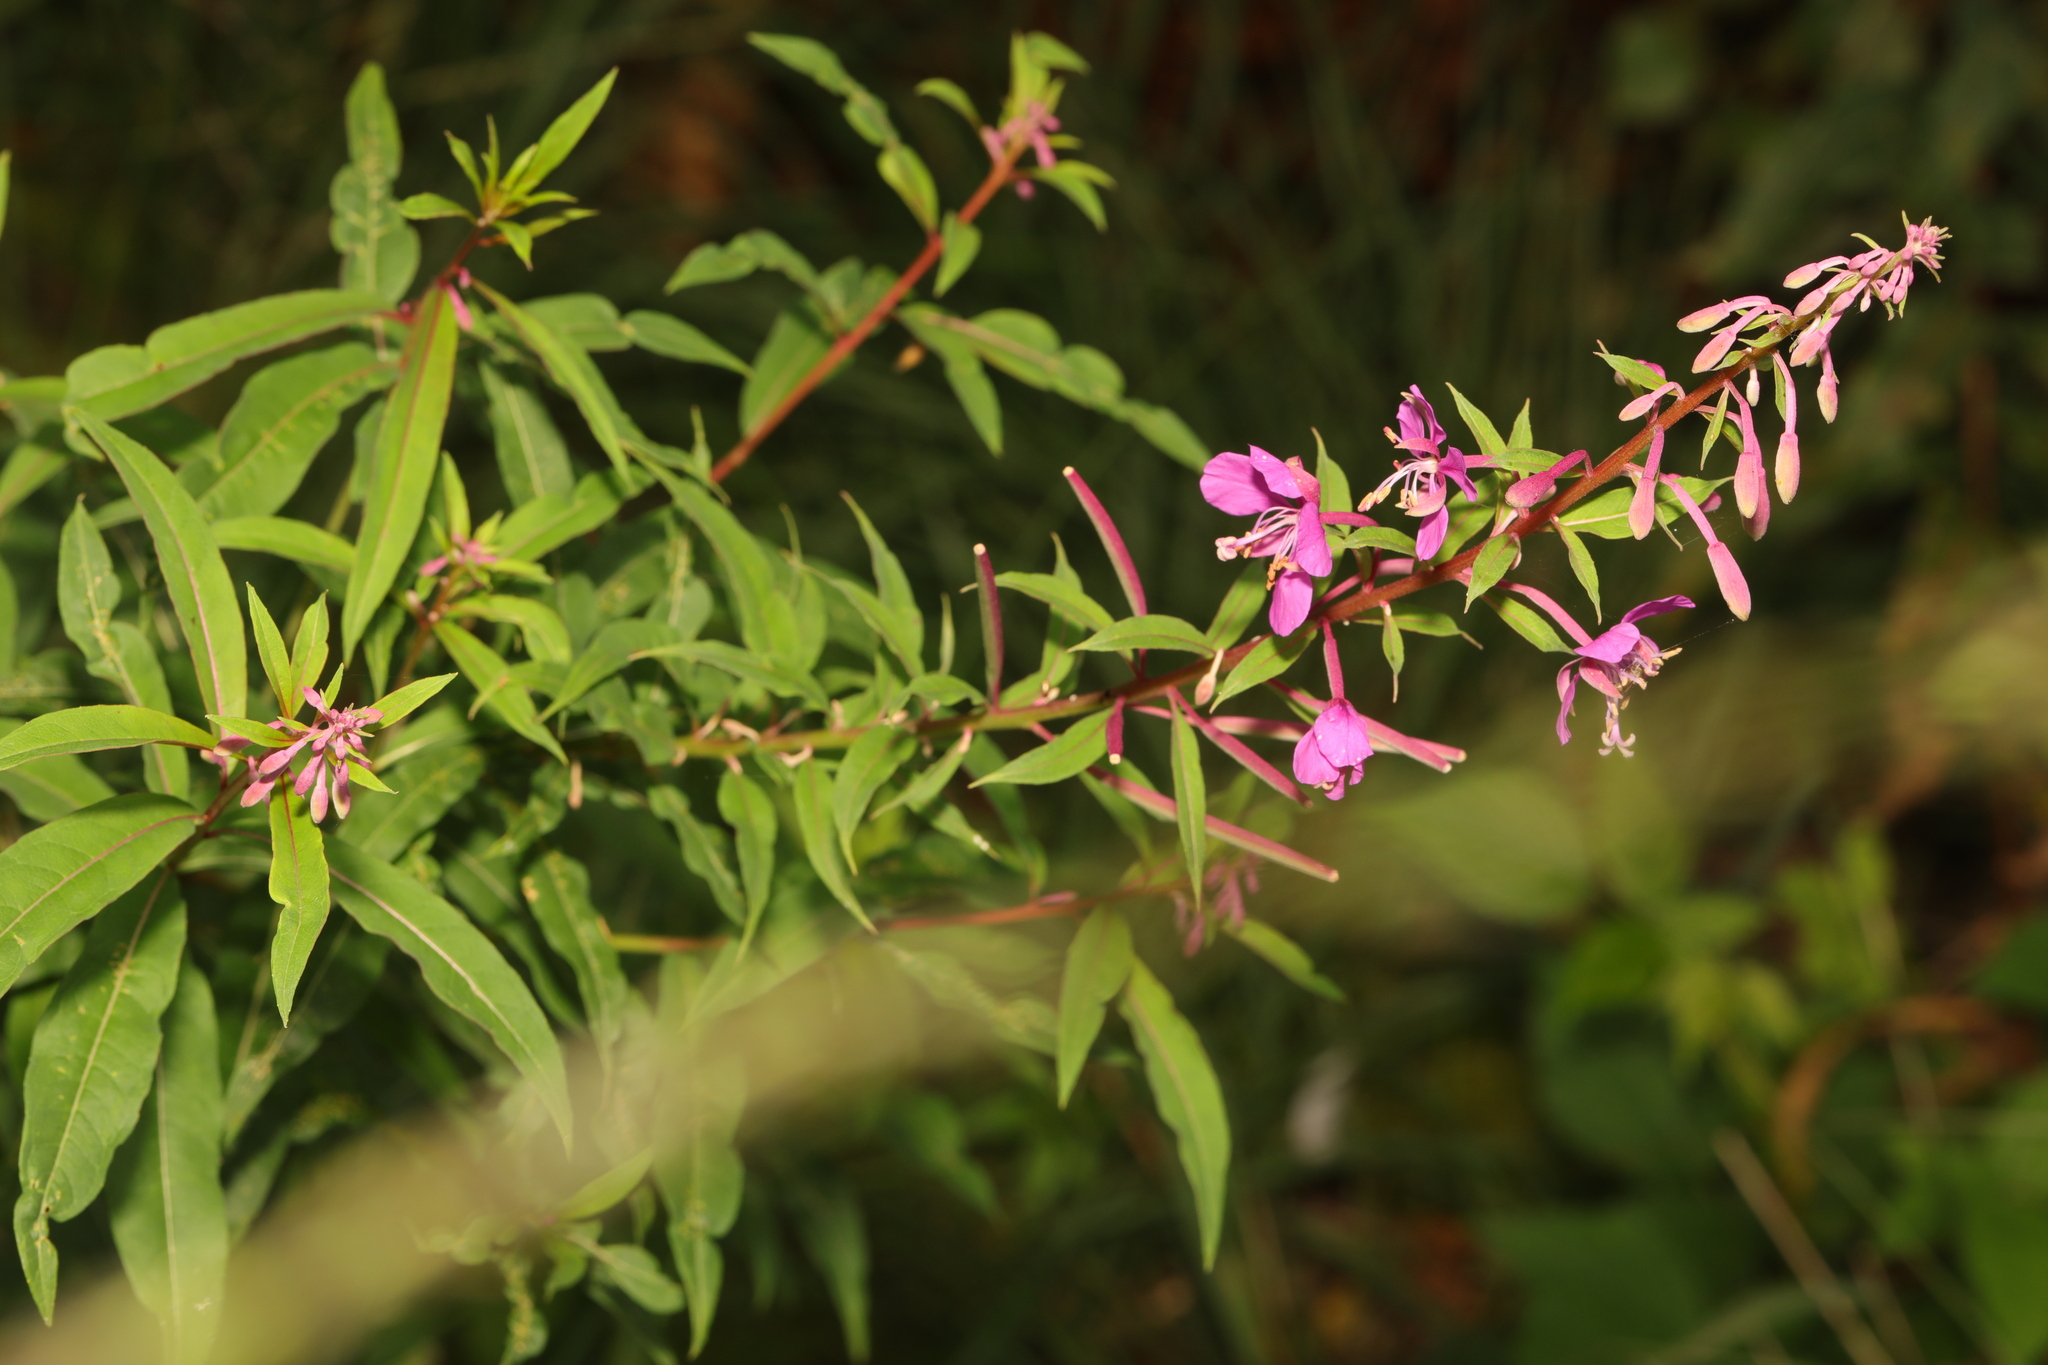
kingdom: Plantae
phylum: Tracheophyta
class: Magnoliopsida
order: Myrtales
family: Onagraceae
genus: Chamaenerion
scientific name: Chamaenerion angustifolium
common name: Fireweed
